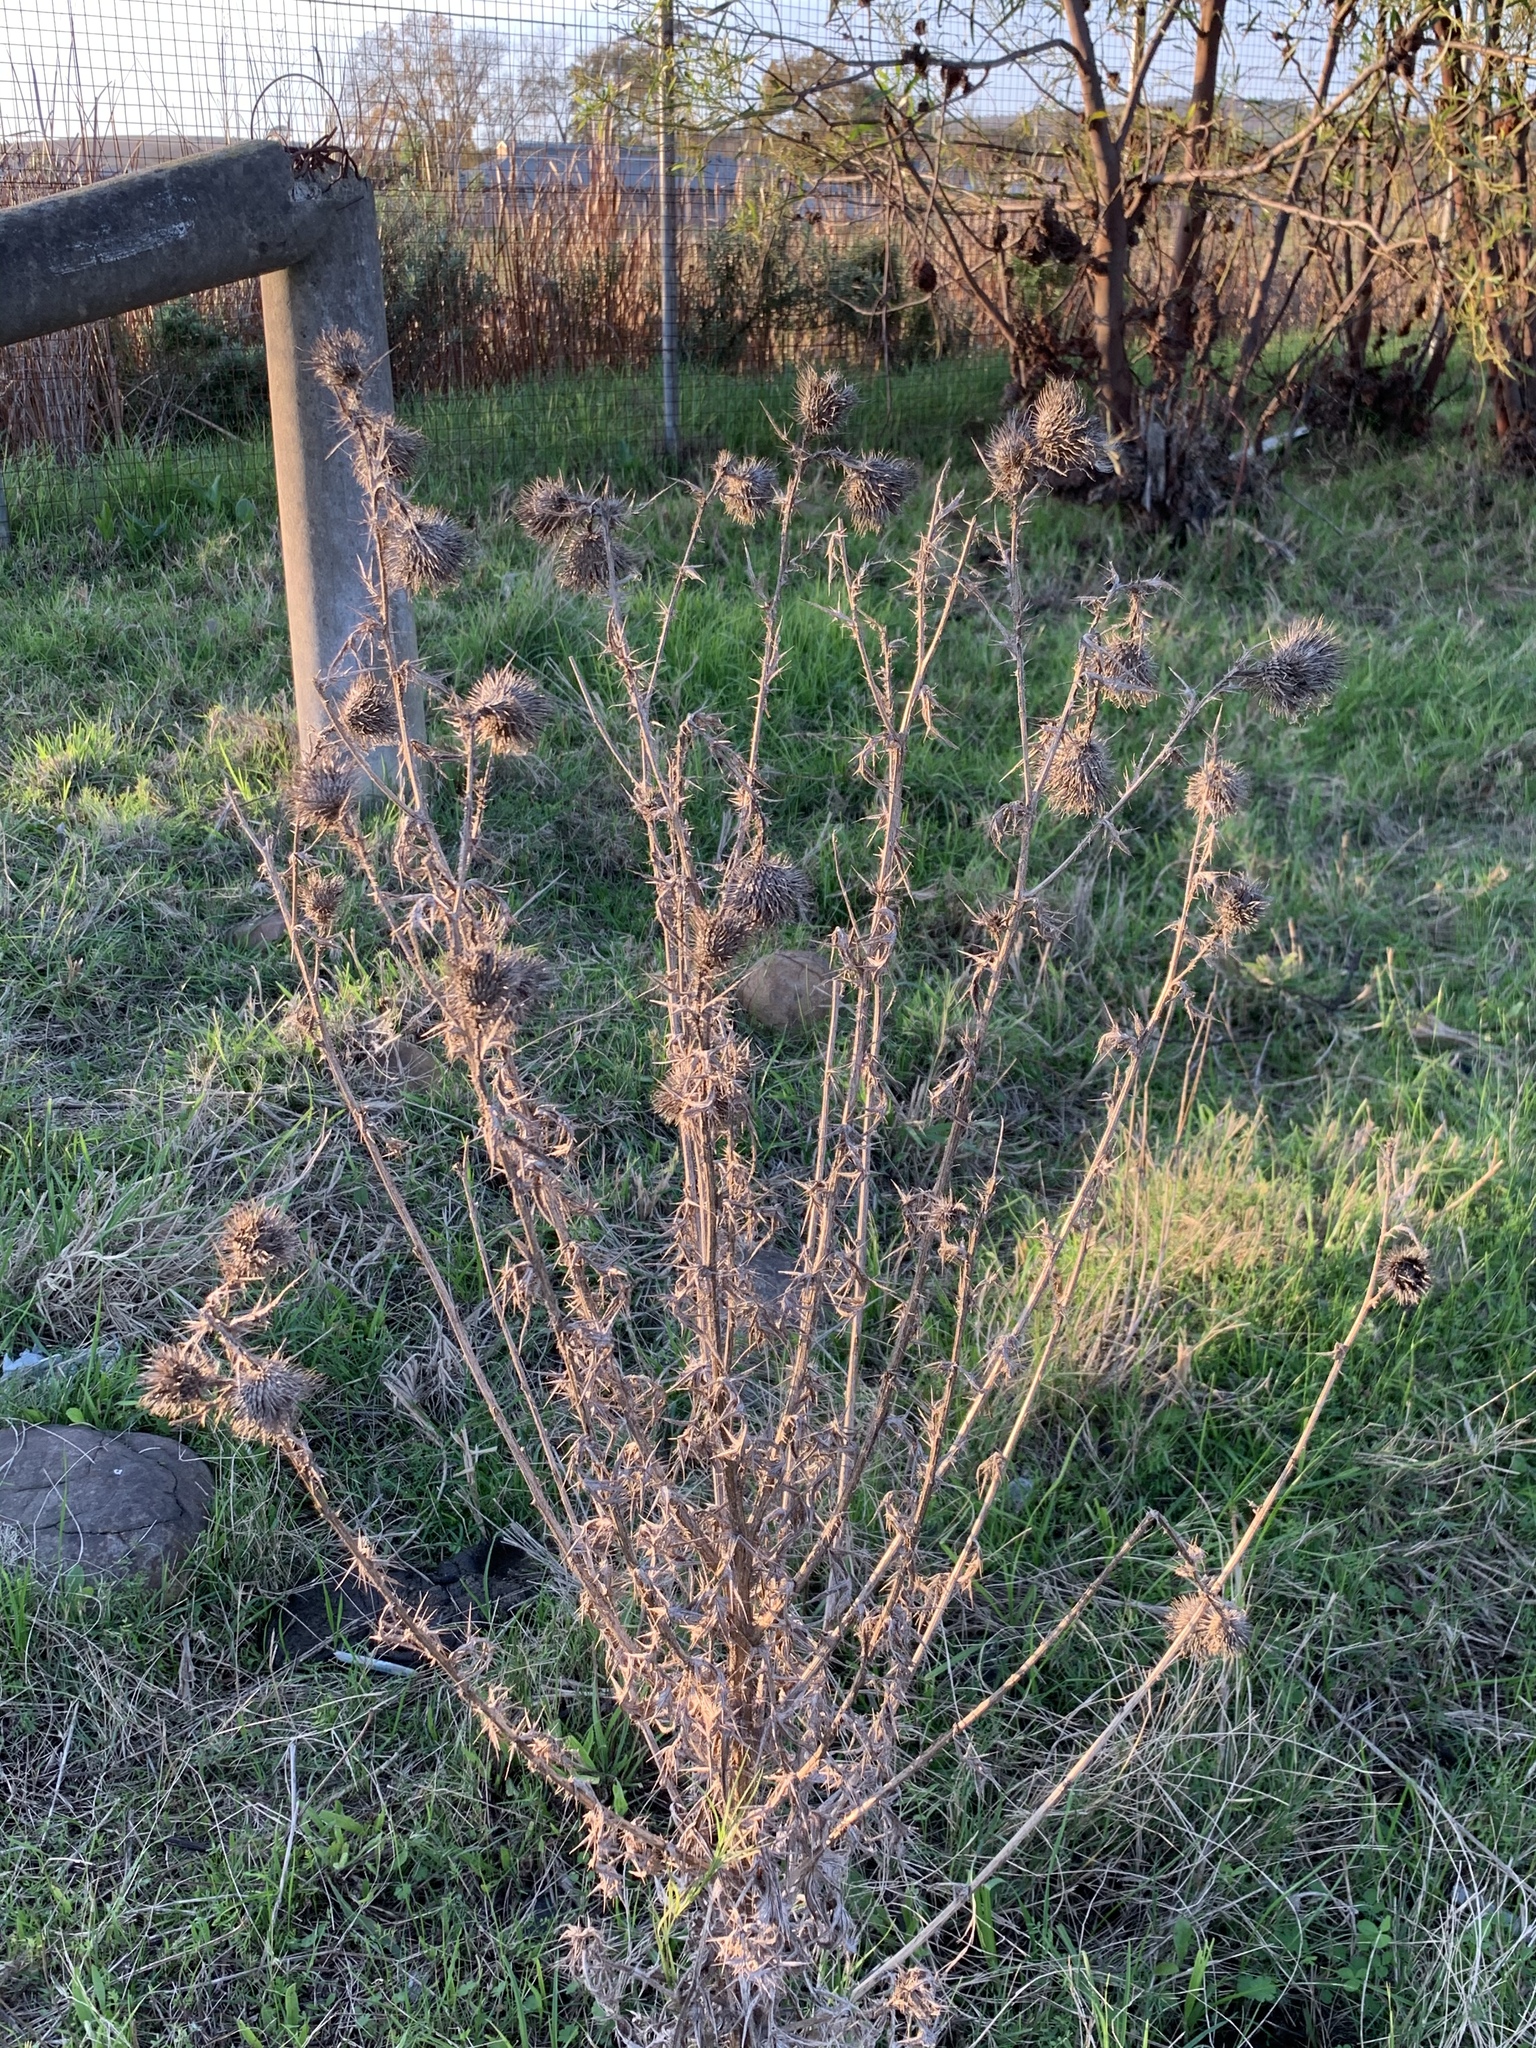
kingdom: Plantae
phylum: Tracheophyta
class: Magnoliopsida
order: Asterales
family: Asteraceae
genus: Cirsium
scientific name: Cirsium vulgare
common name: Bull thistle
